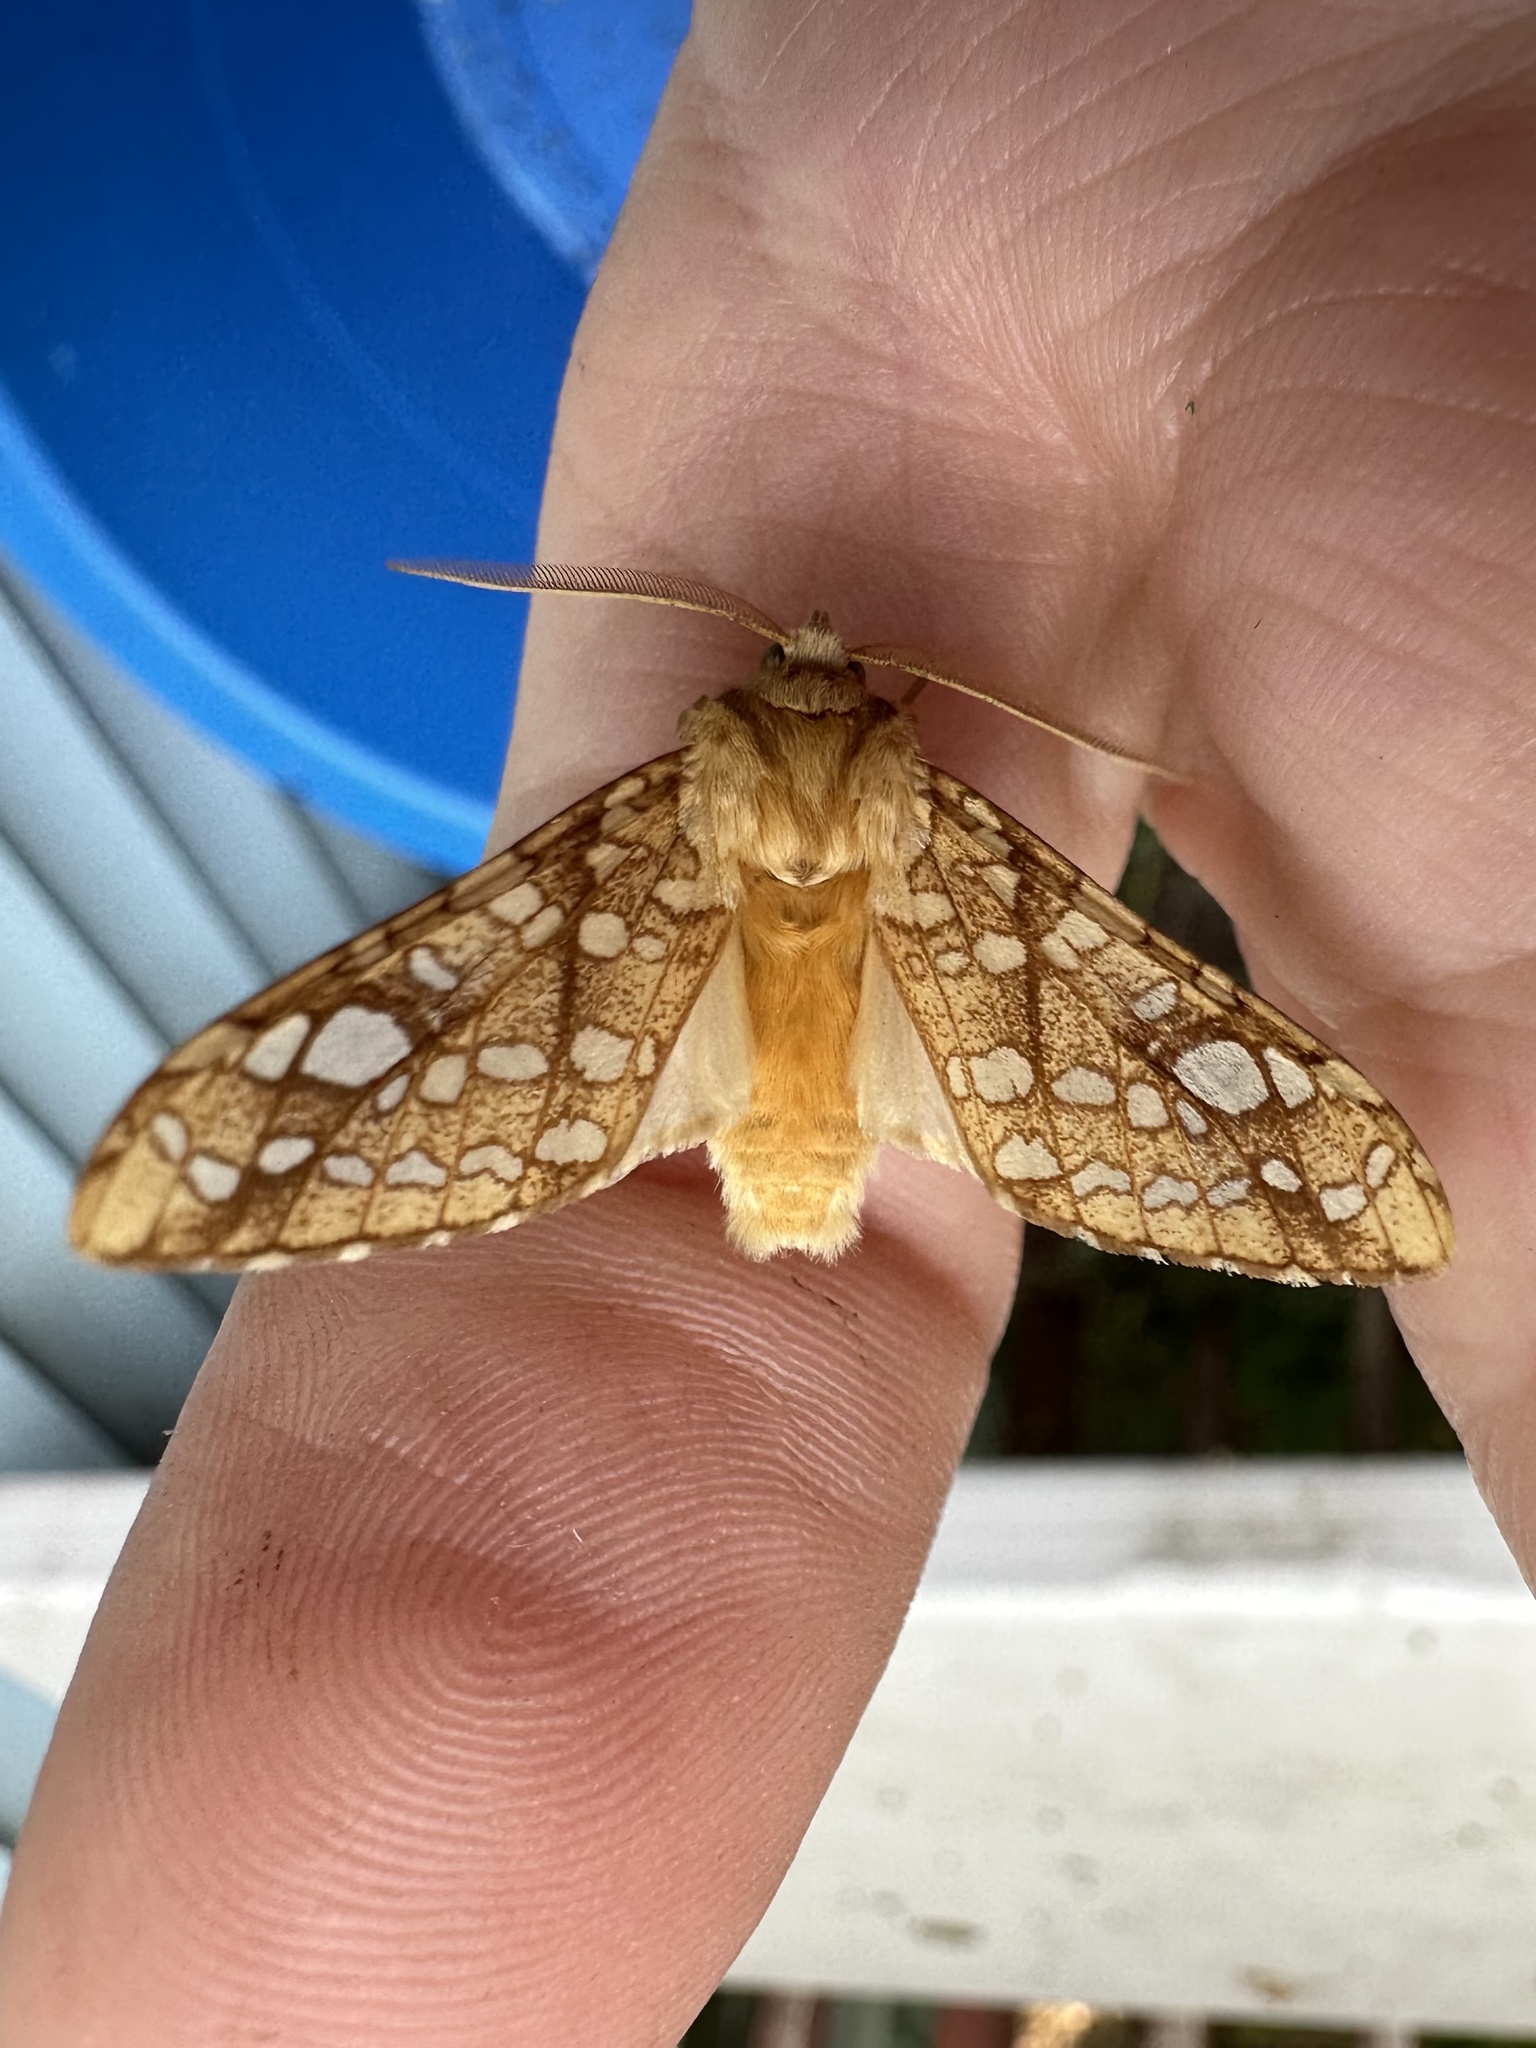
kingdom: Animalia
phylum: Arthropoda
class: Insecta
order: Lepidoptera
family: Erebidae
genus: Lophocampa
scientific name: Lophocampa caryae
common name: Hickory tussock moth
